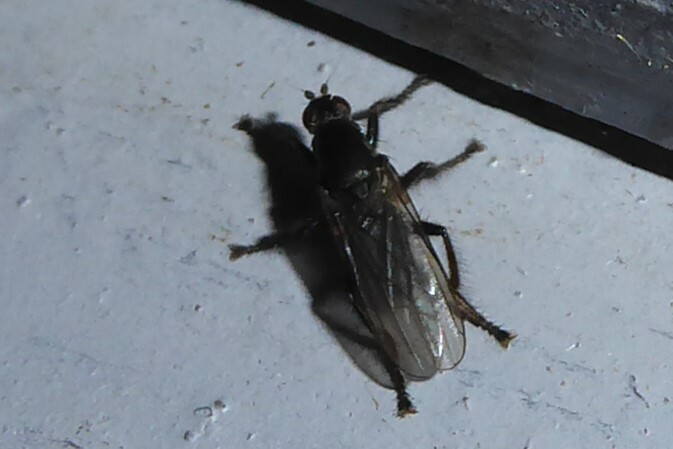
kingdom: Animalia
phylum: Arthropoda
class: Insecta
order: Diptera
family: Coelopidae
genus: Chaetocoelopa
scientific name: Chaetocoelopa littoralis
